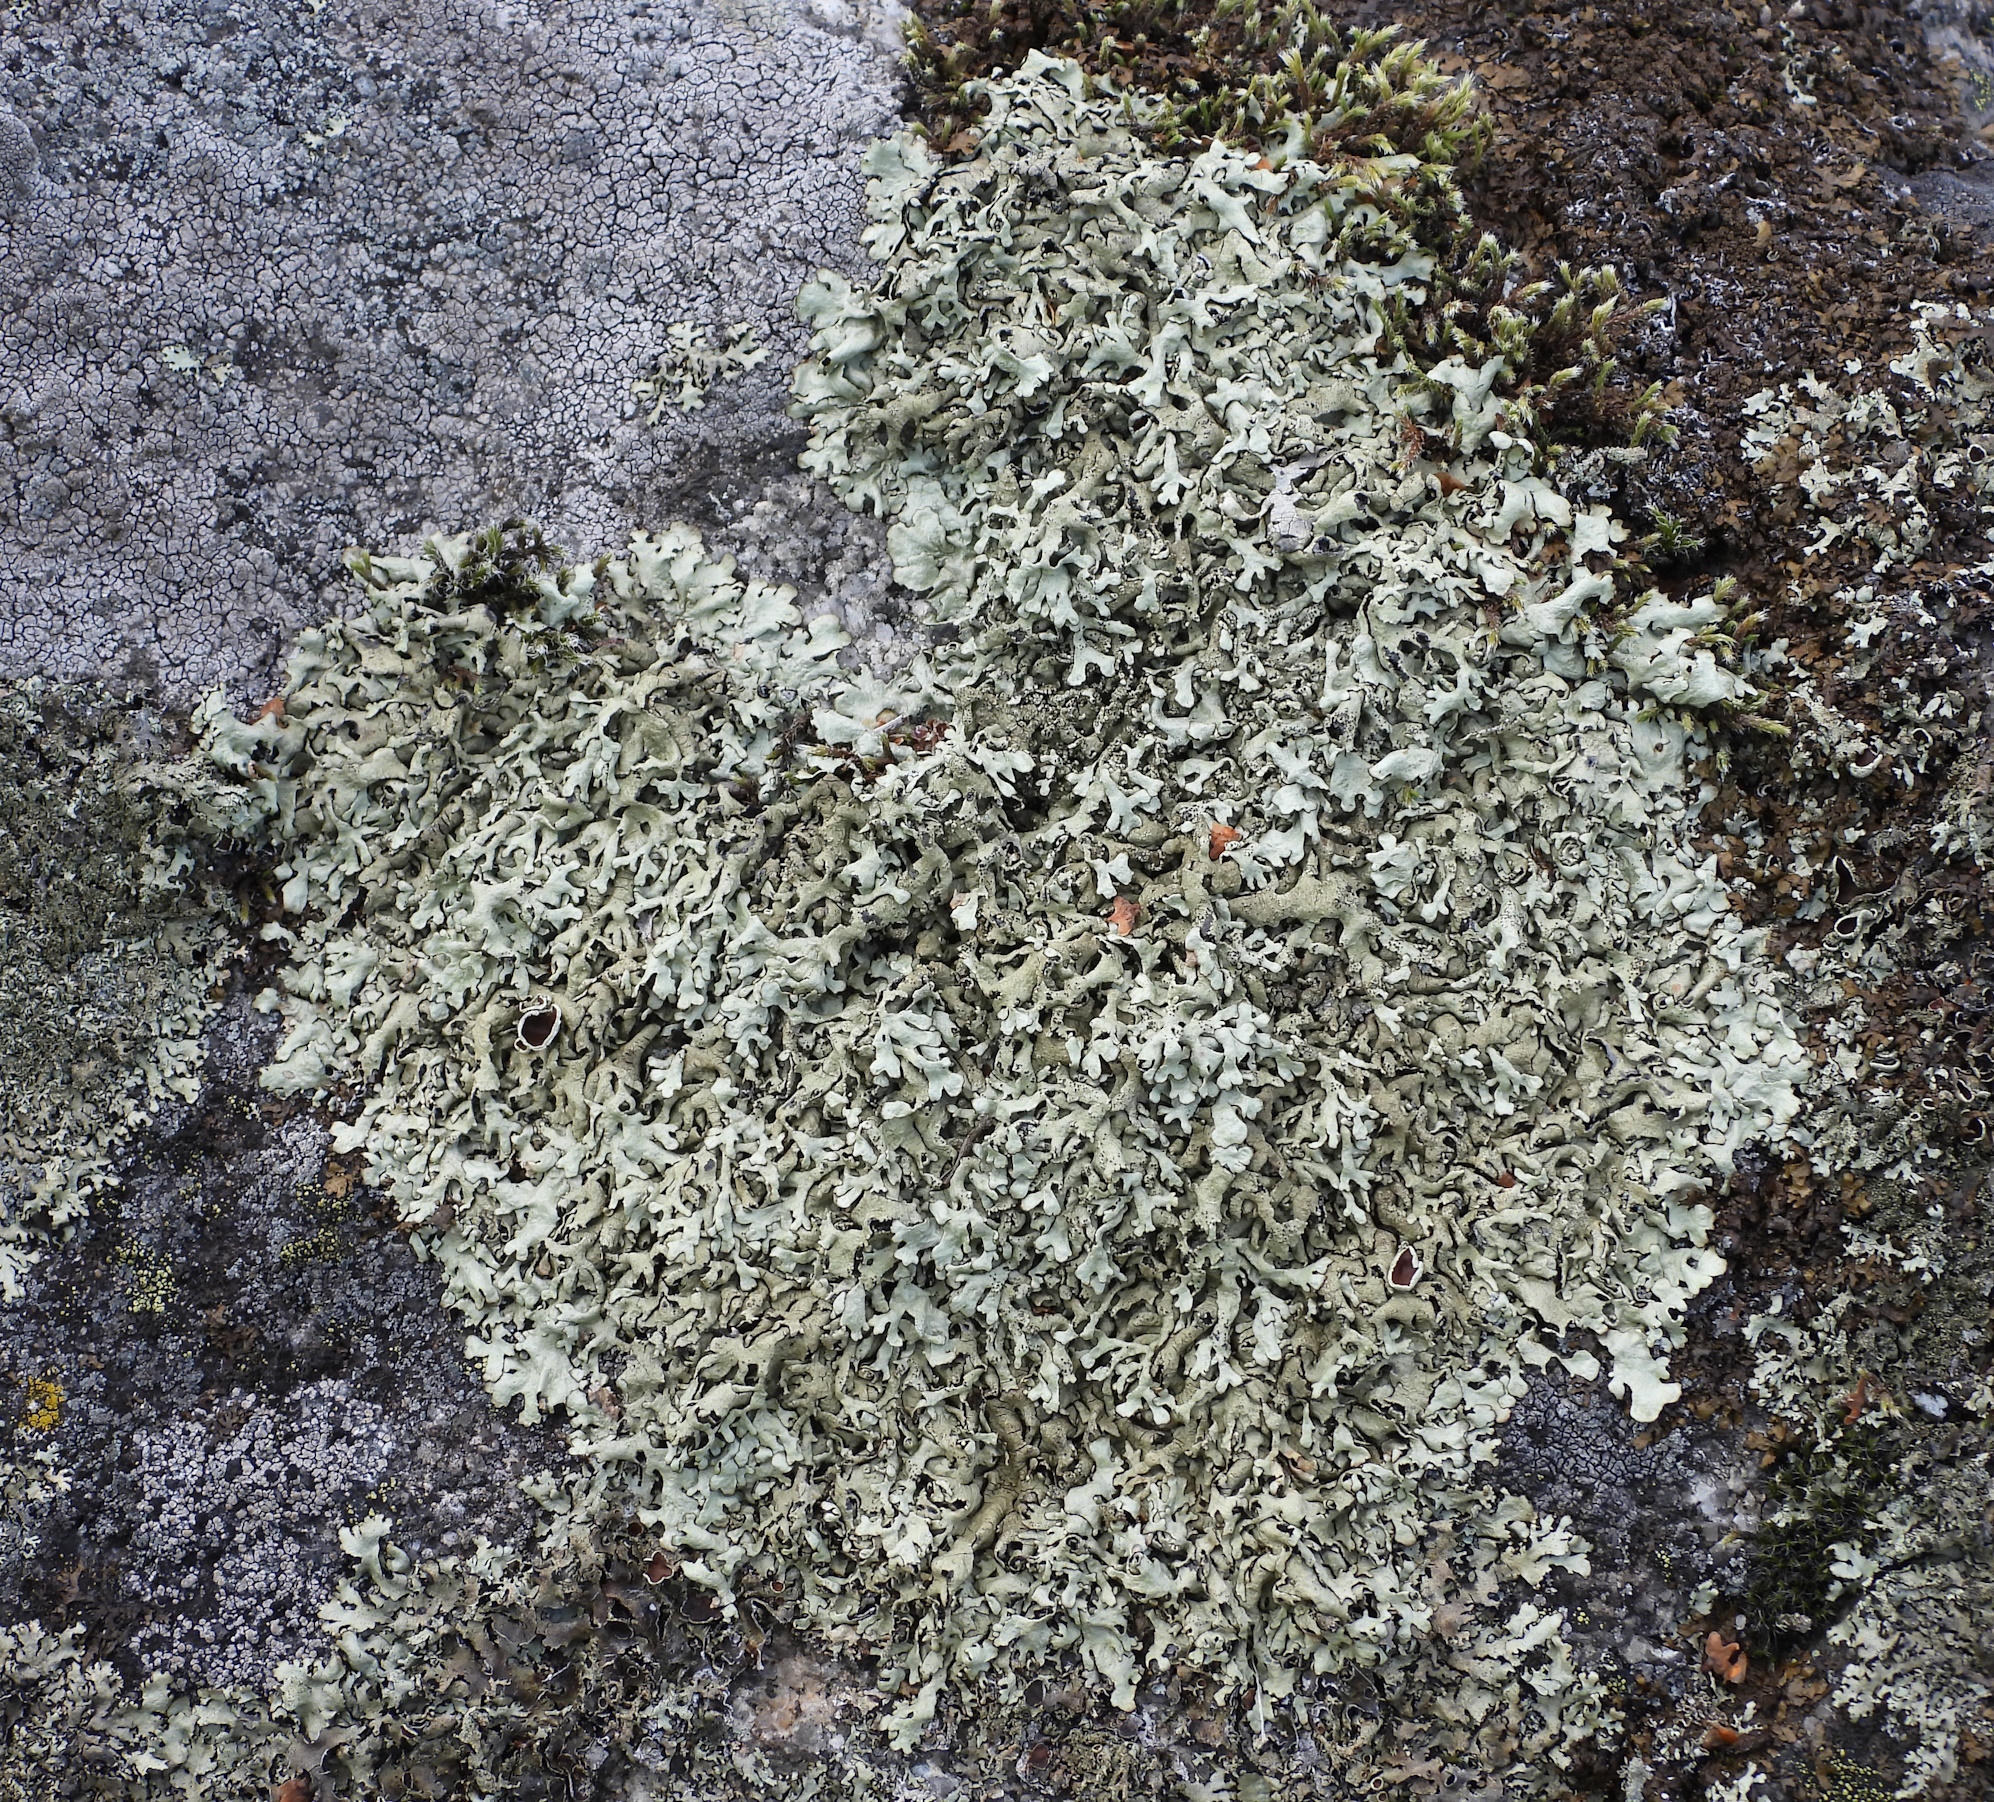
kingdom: Fungi
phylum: Ascomycota
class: Lecanoromycetes
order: Lecanorales
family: Parmeliaceae
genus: Xanthoparmelia
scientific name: Xanthoparmelia stenophylla
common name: Shingled rock shield
